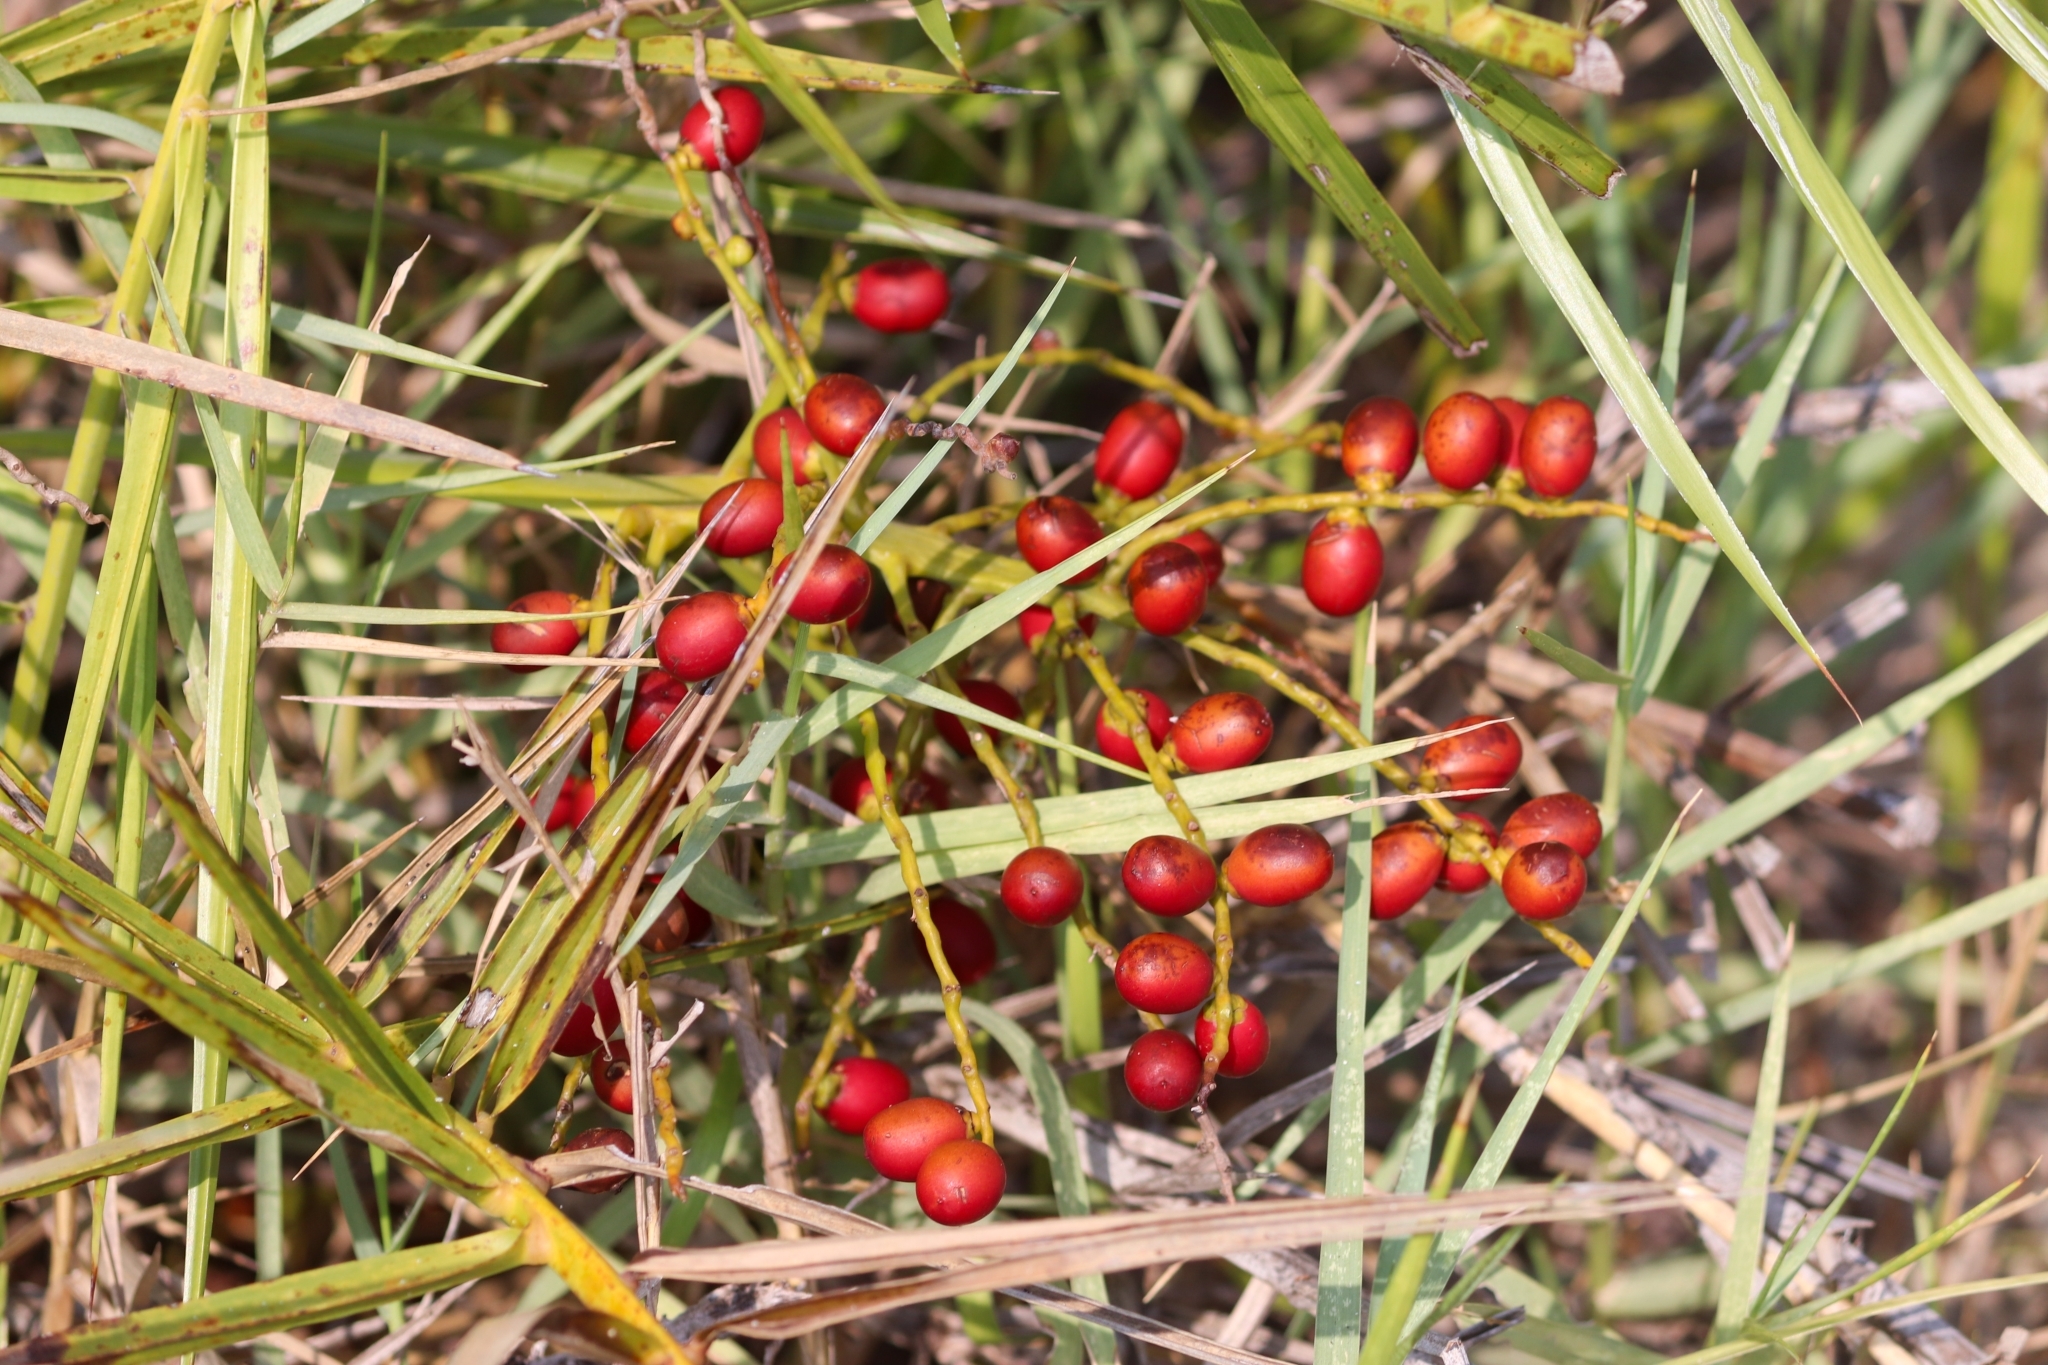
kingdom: Plantae
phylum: Tracheophyta
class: Liliopsida
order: Arecales
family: Arecaceae
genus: Phoenix
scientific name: Phoenix pusilla
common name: Flour palm
